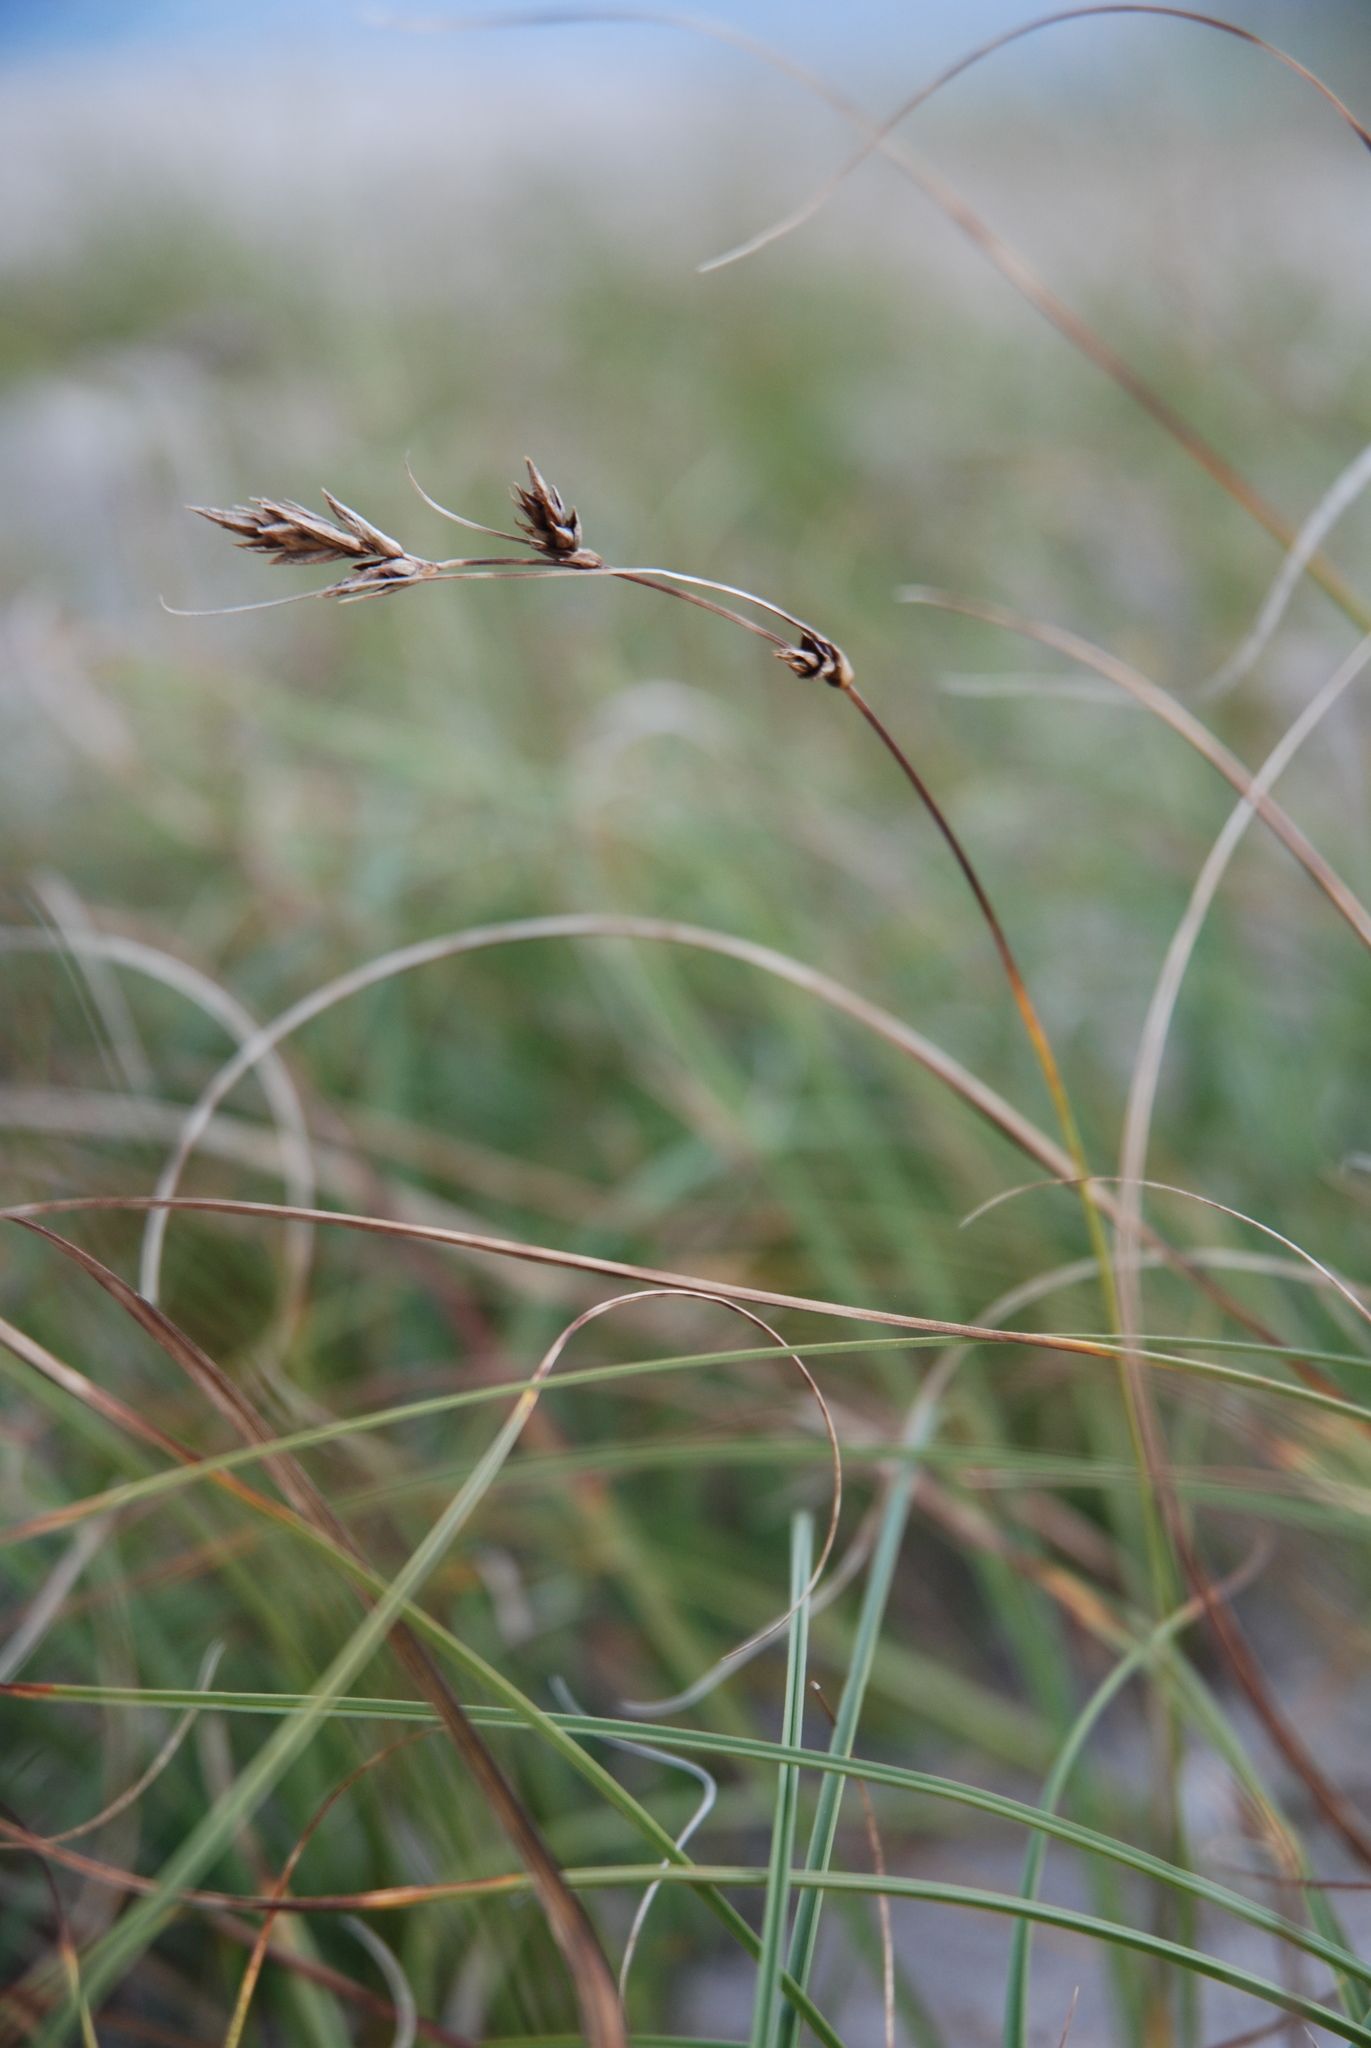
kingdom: Plantae
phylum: Tracheophyta
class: Liliopsida
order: Poales
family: Cyperaceae
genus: Carex
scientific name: Carex arenaria
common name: Sand sedge
